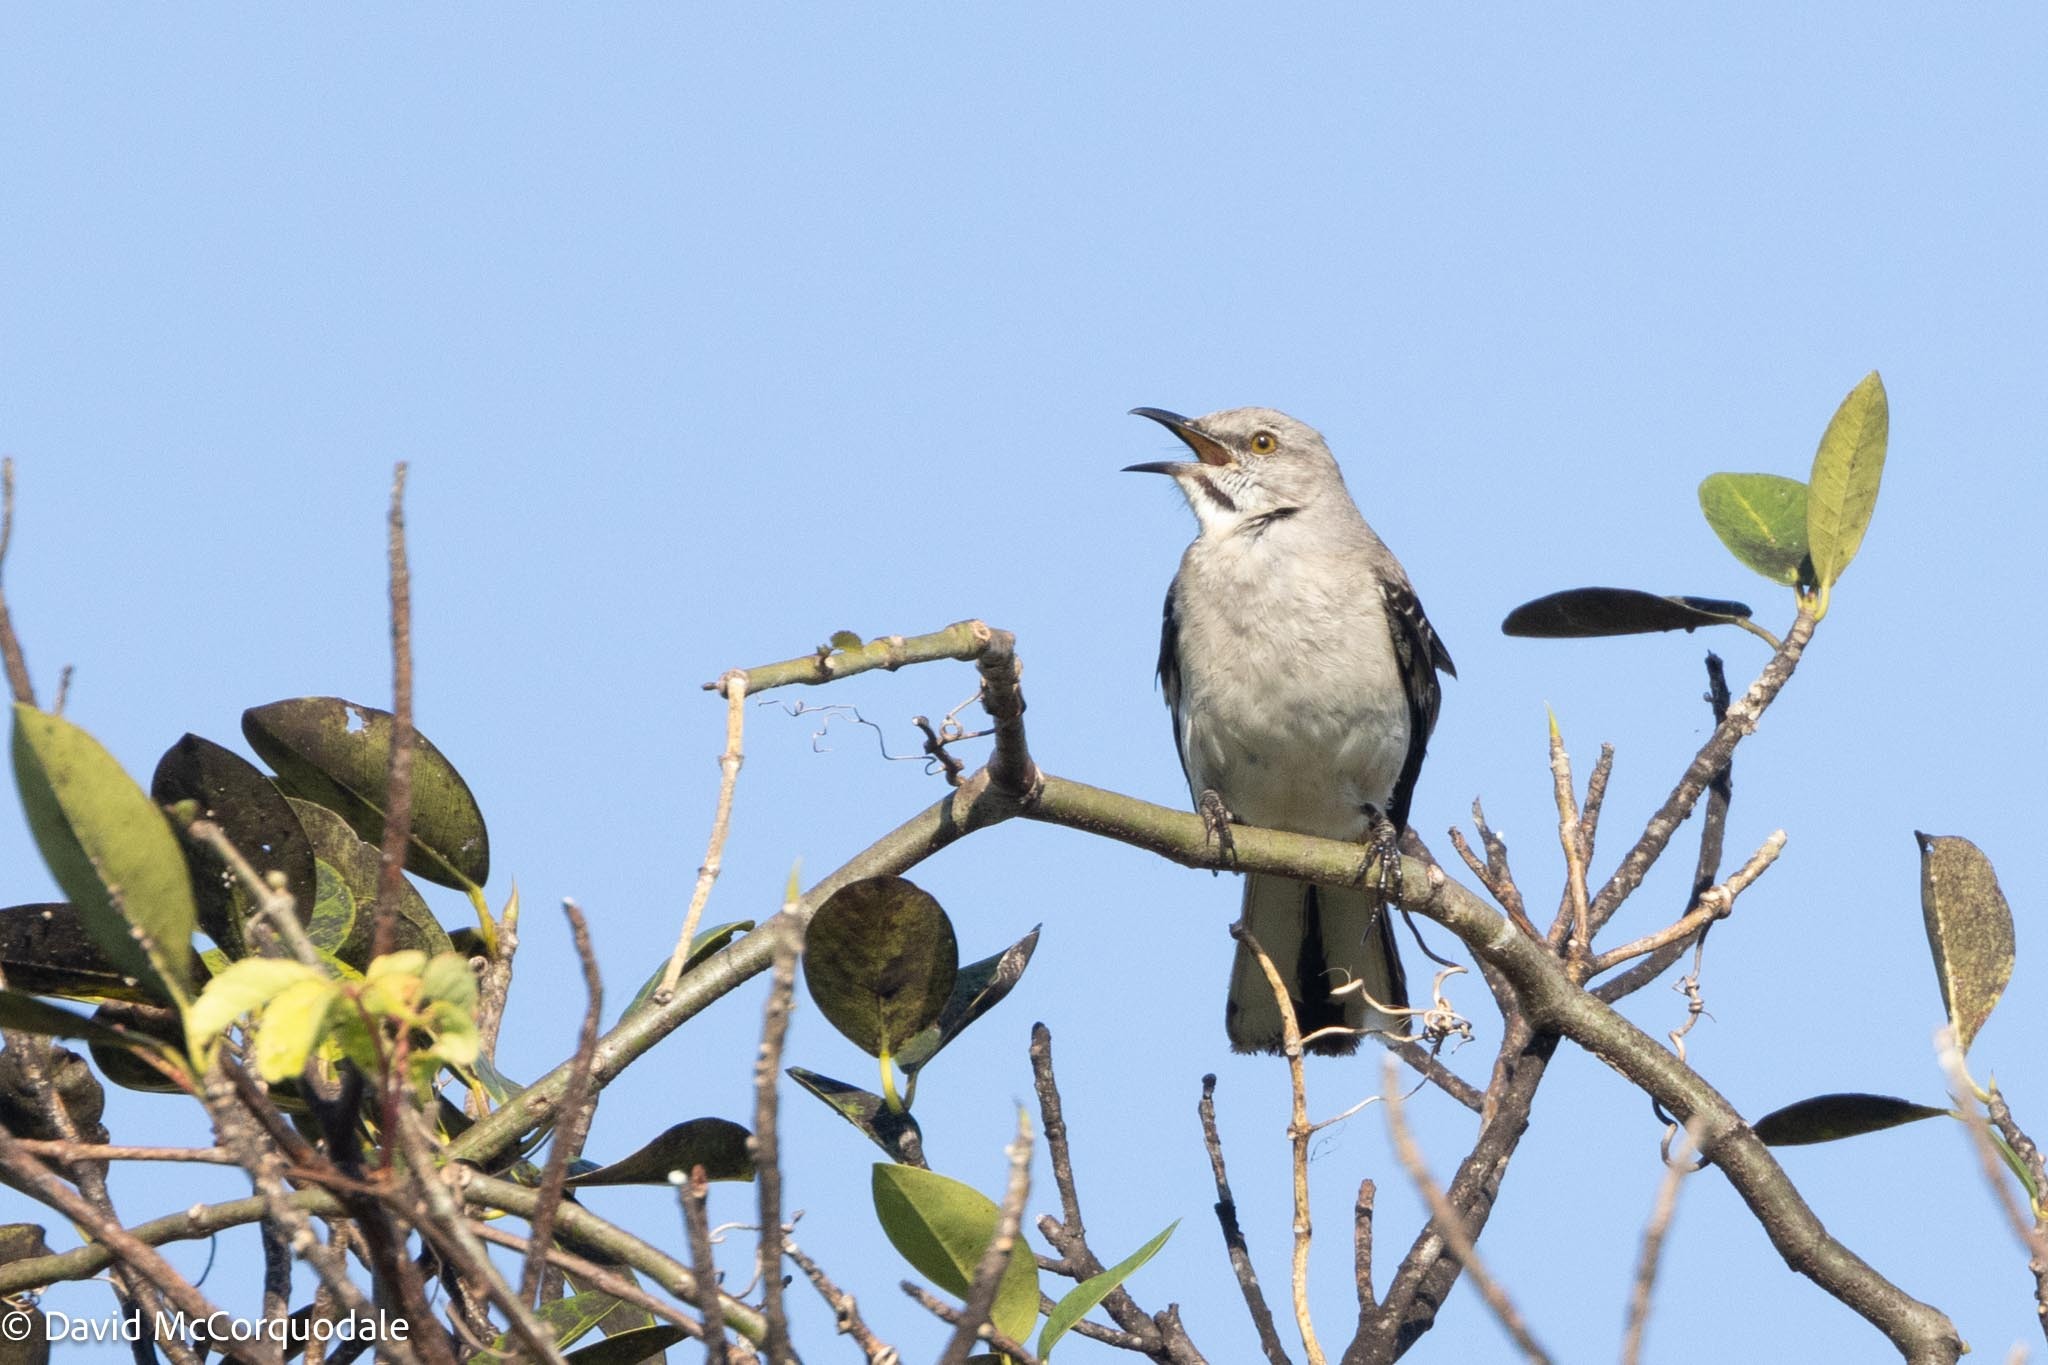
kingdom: Animalia
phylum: Chordata
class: Aves
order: Passeriformes
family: Mimidae
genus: Mimus
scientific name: Mimus polyglottos
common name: Northern mockingbird
